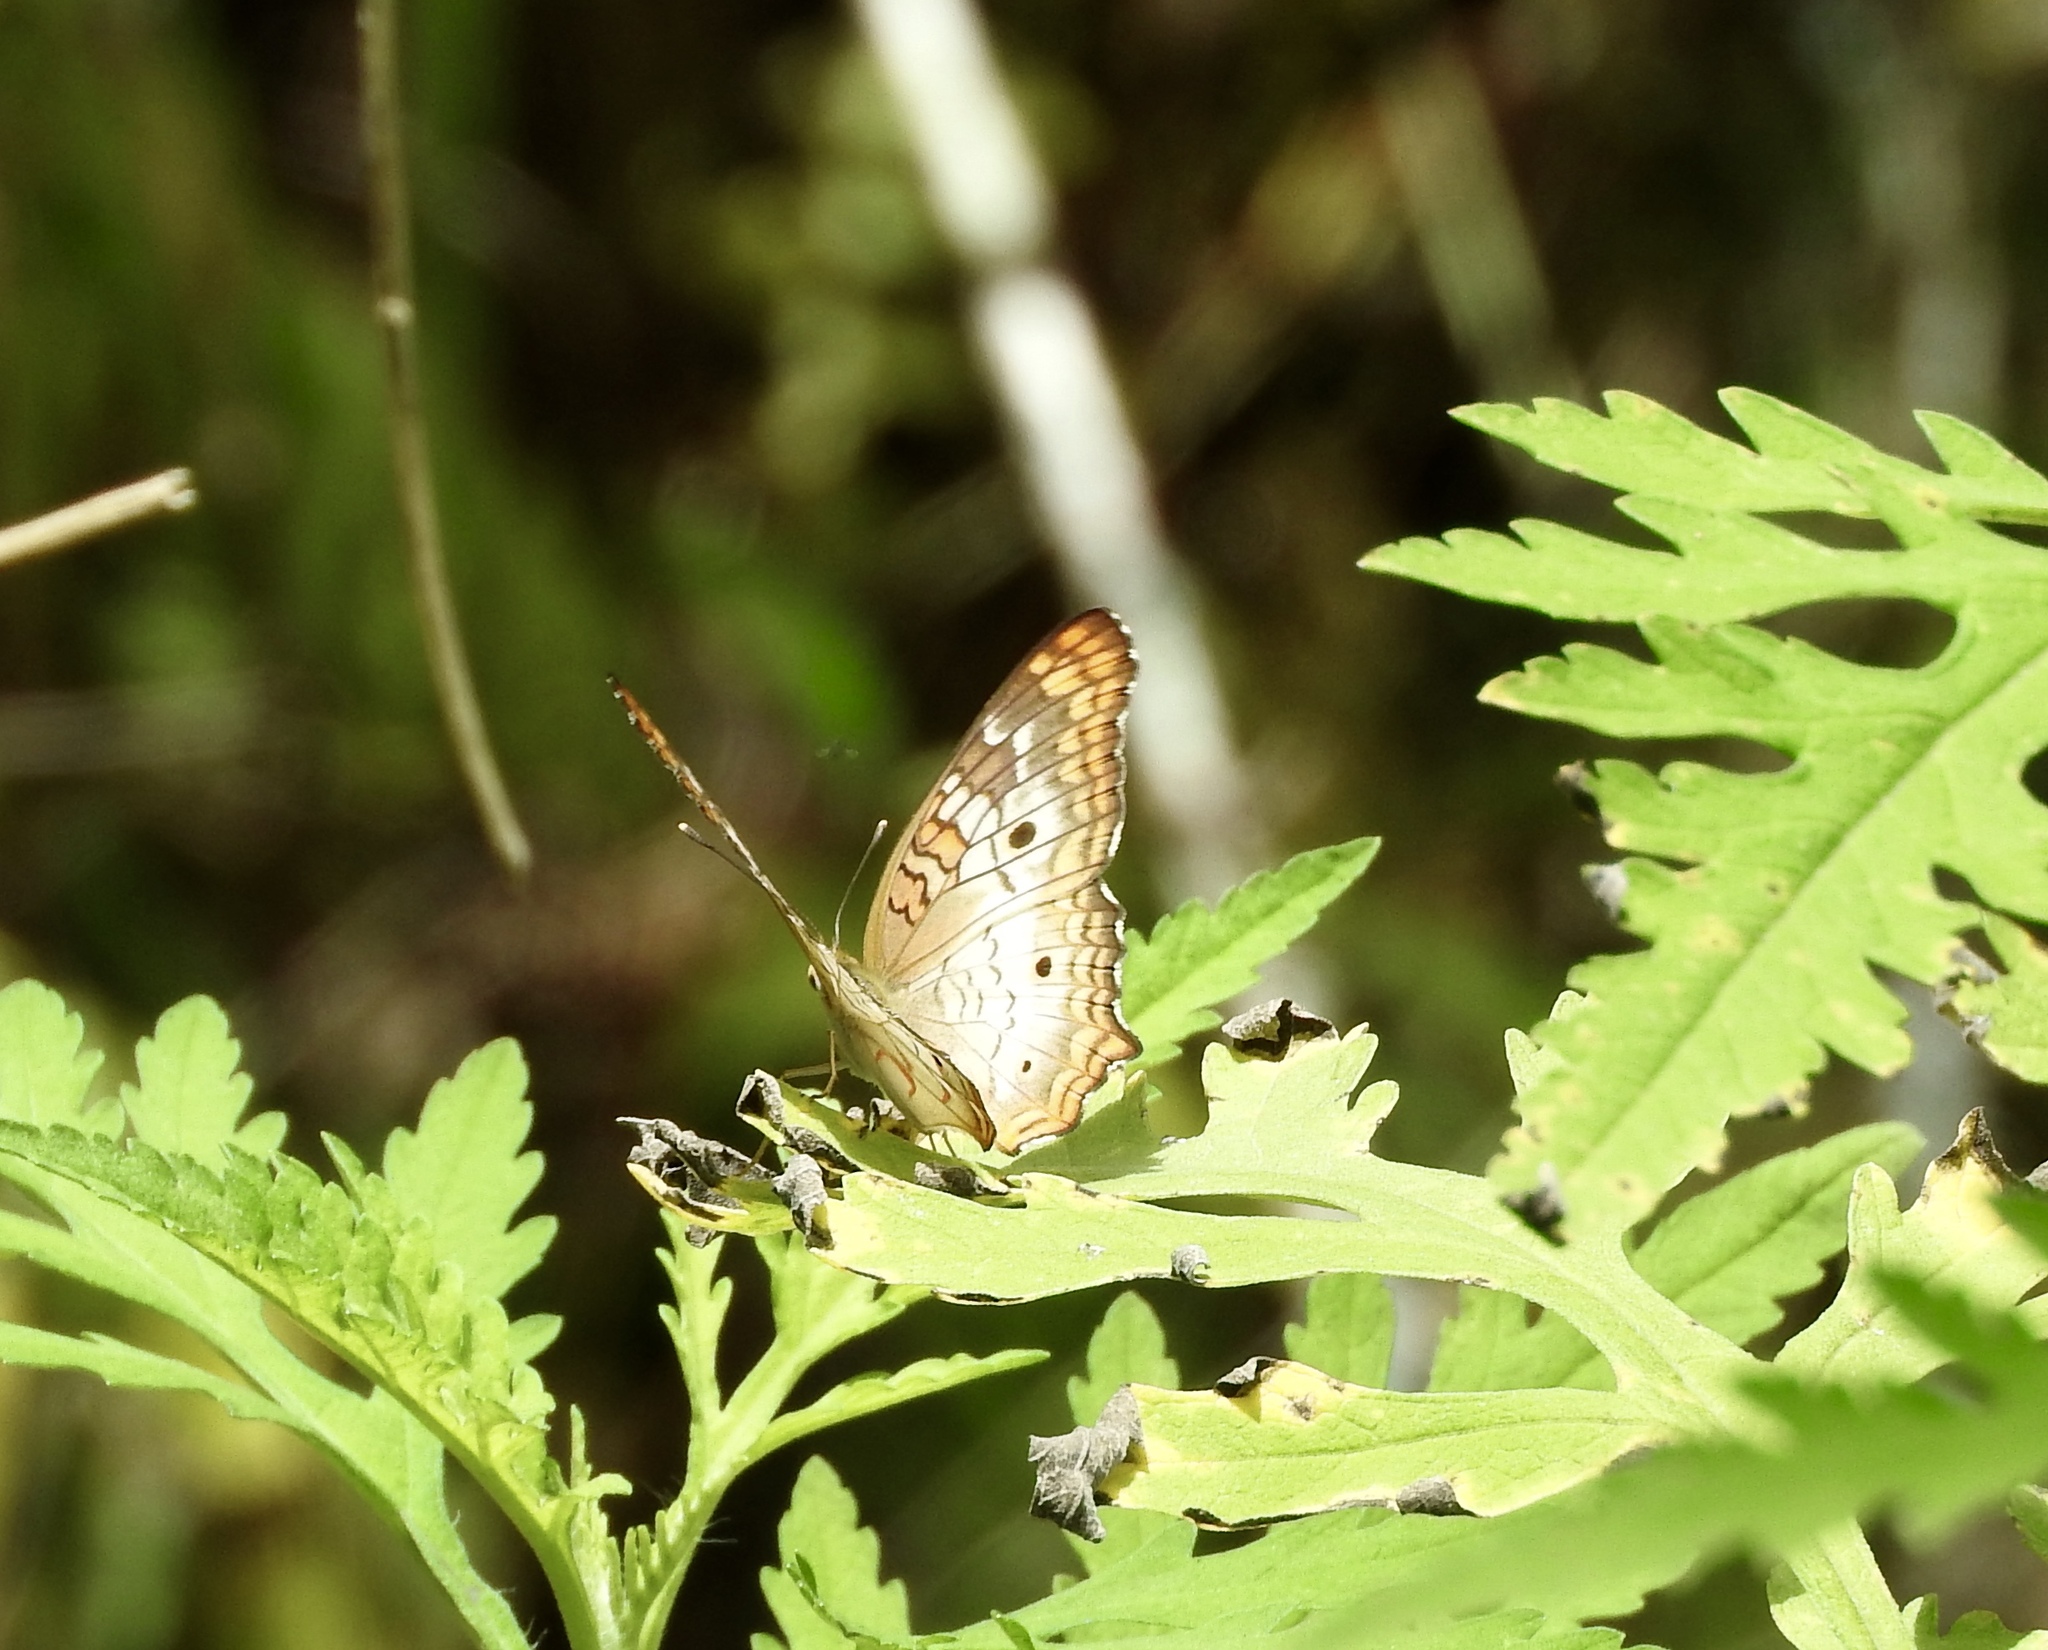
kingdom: Animalia
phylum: Arthropoda
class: Insecta
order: Lepidoptera
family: Nymphalidae
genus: Anartia
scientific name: Anartia jatrophae
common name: White peacock
